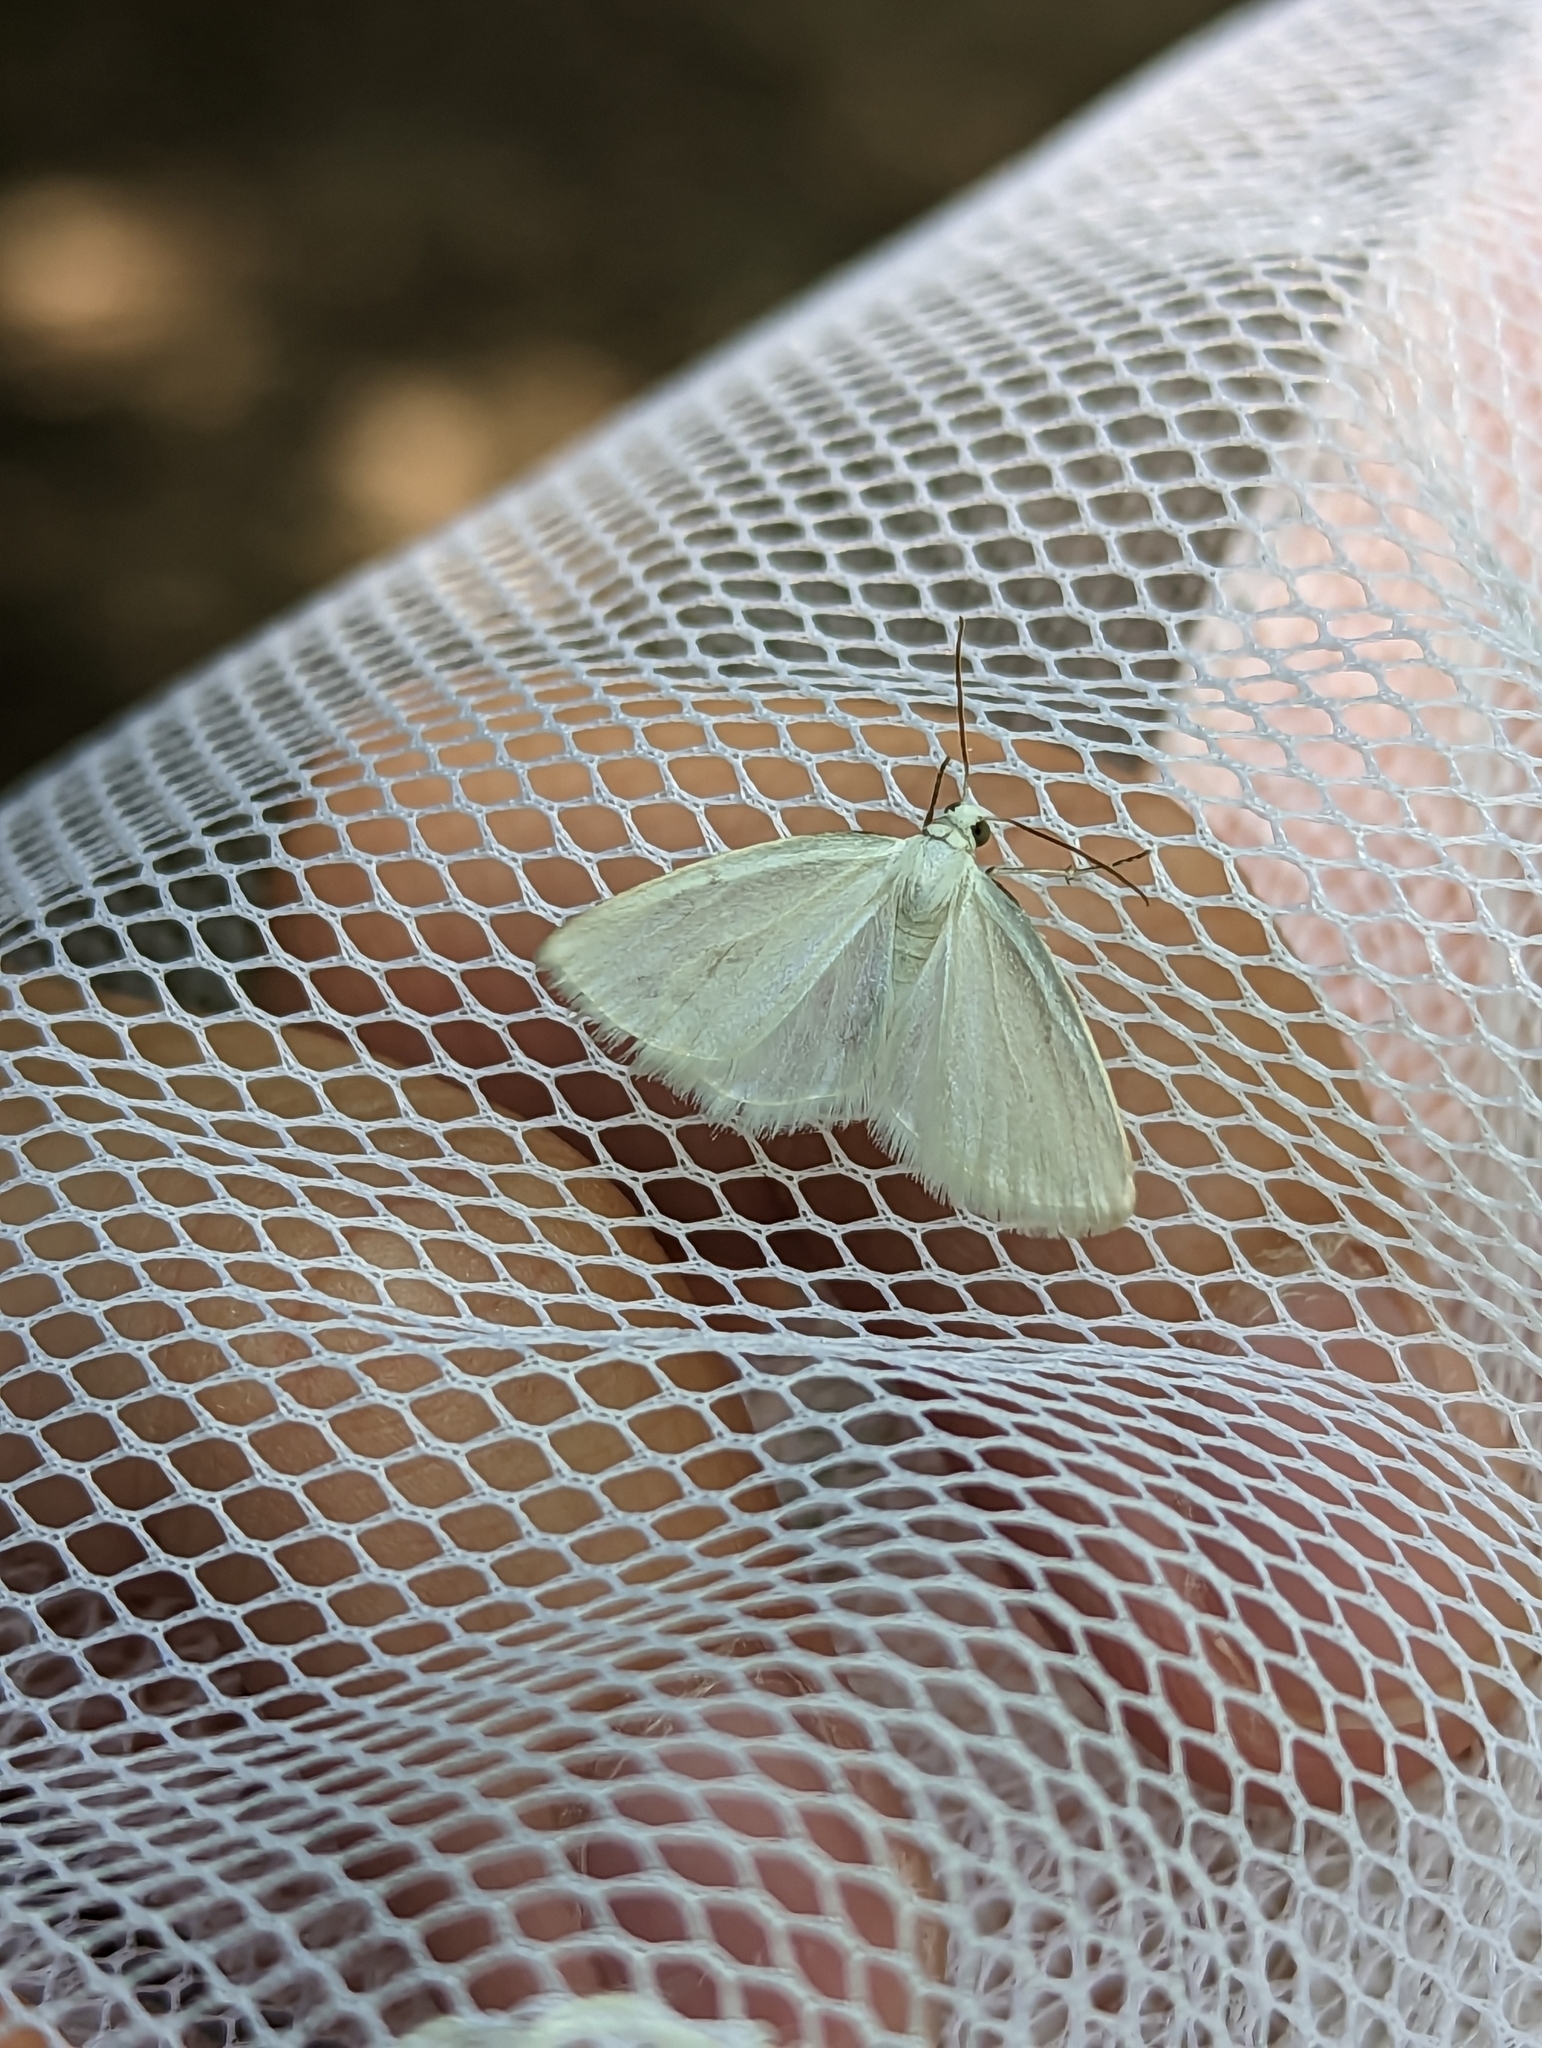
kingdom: Animalia
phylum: Arthropoda
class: Insecta
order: Lepidoptera
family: Geometridae
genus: Lomographa
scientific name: Lomographa vestaliata
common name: White spring moth
